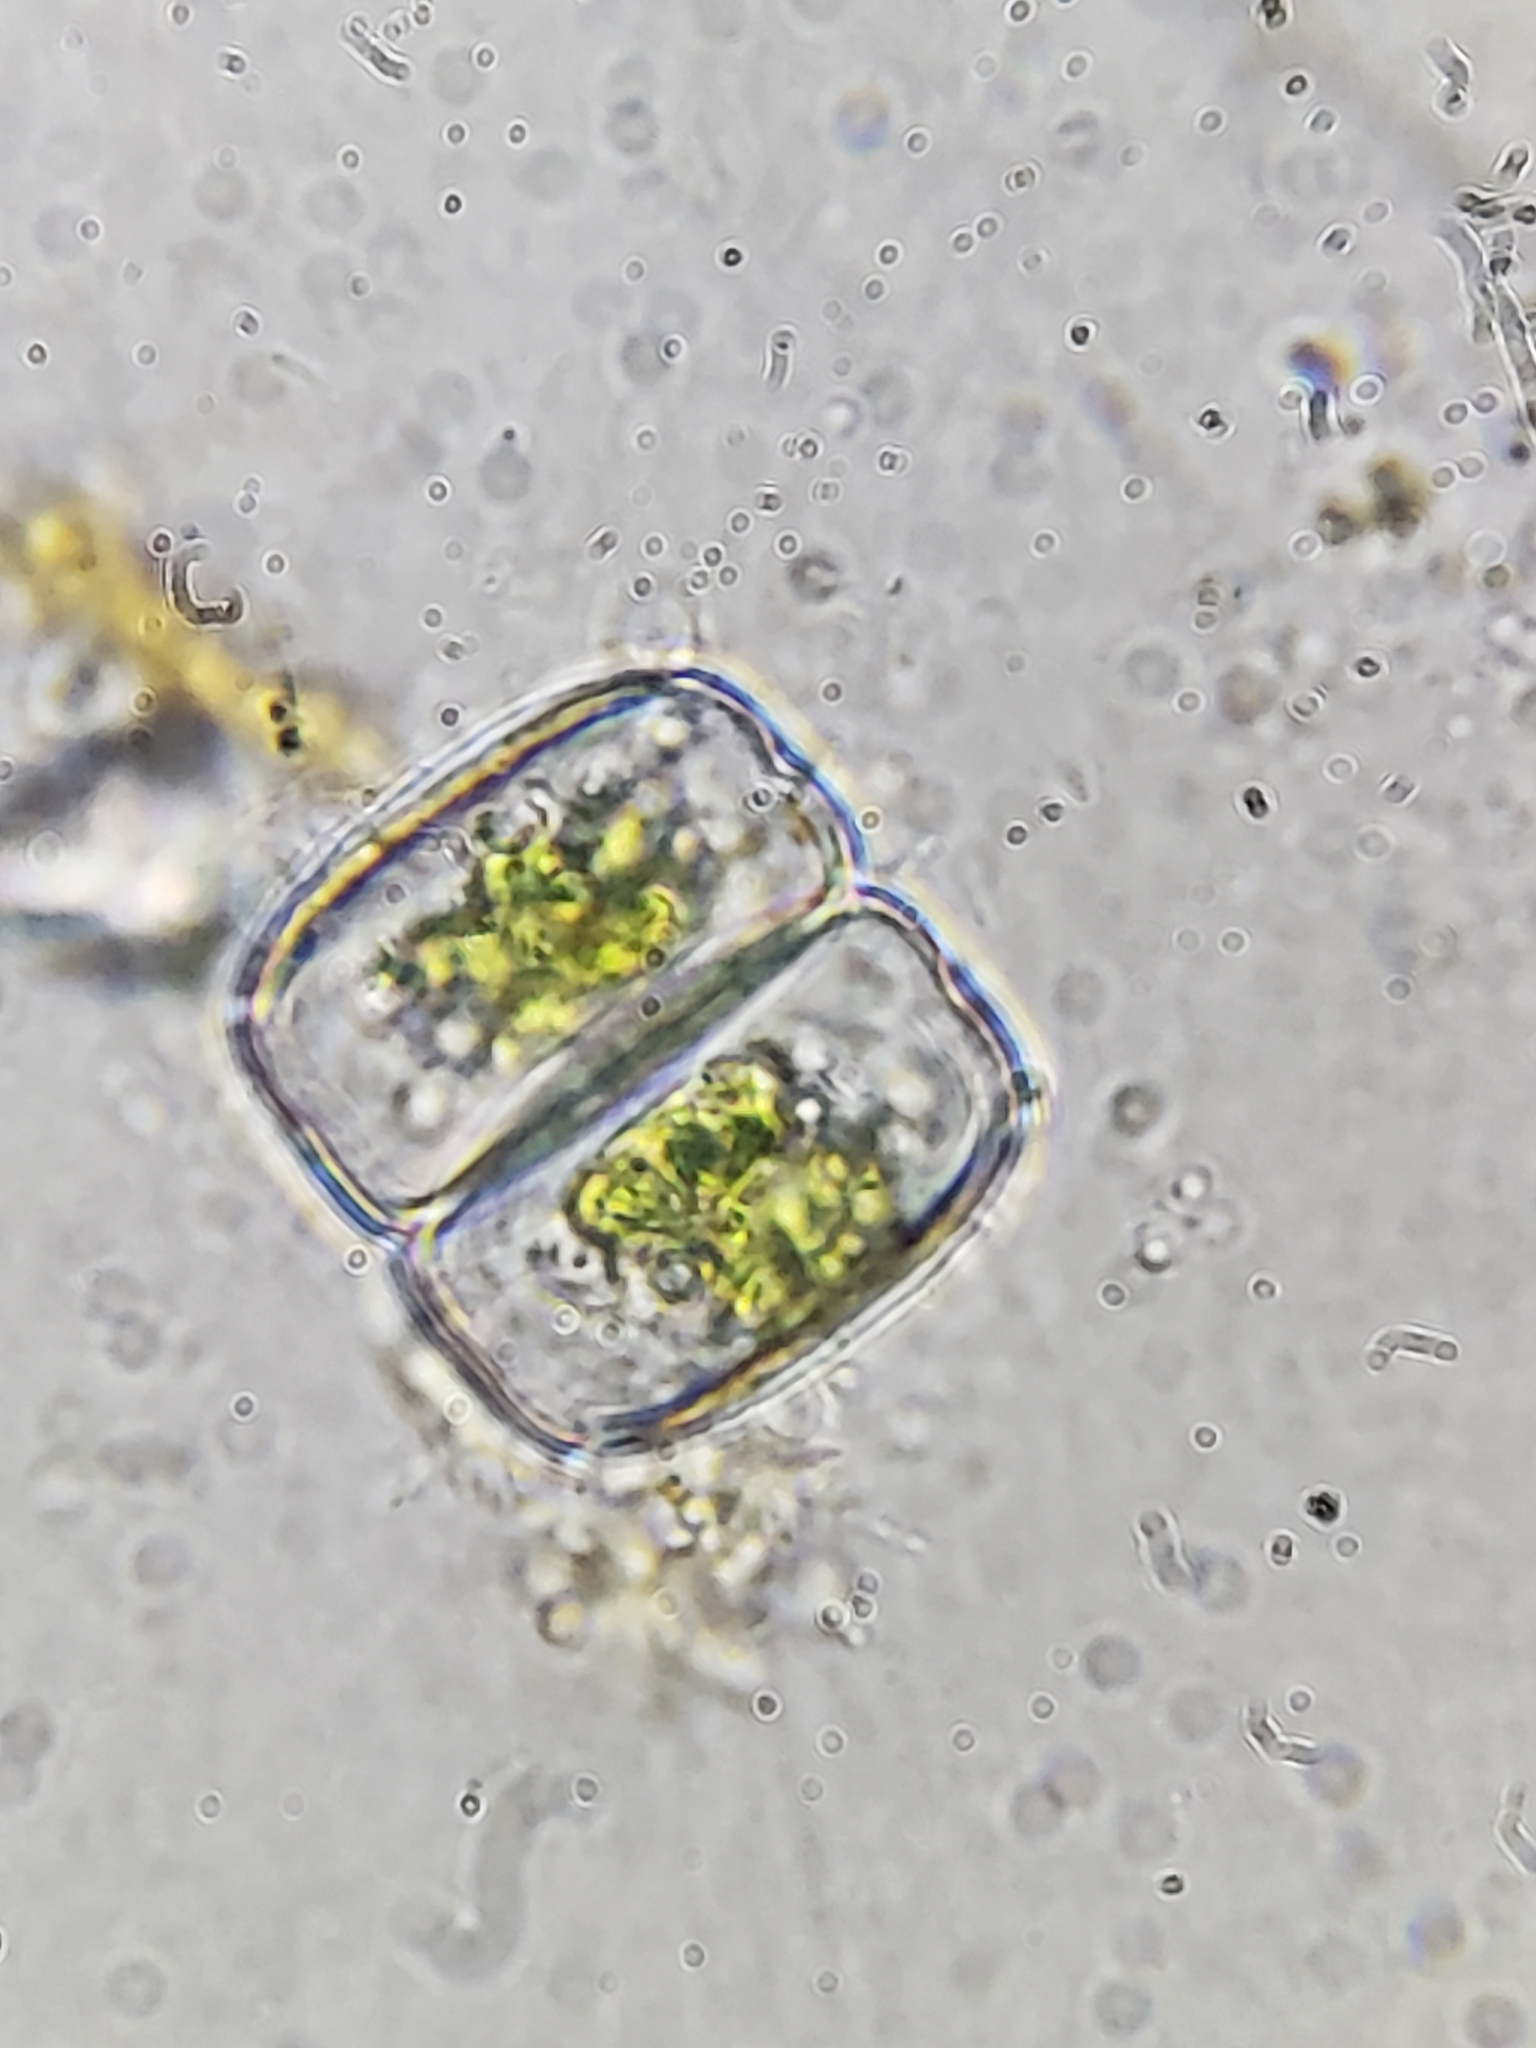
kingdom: Plantae
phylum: Charophyta
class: Conjugatophyceae
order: Desmidiales
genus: Hyalotheca
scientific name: Hyalotheca dissiliens
